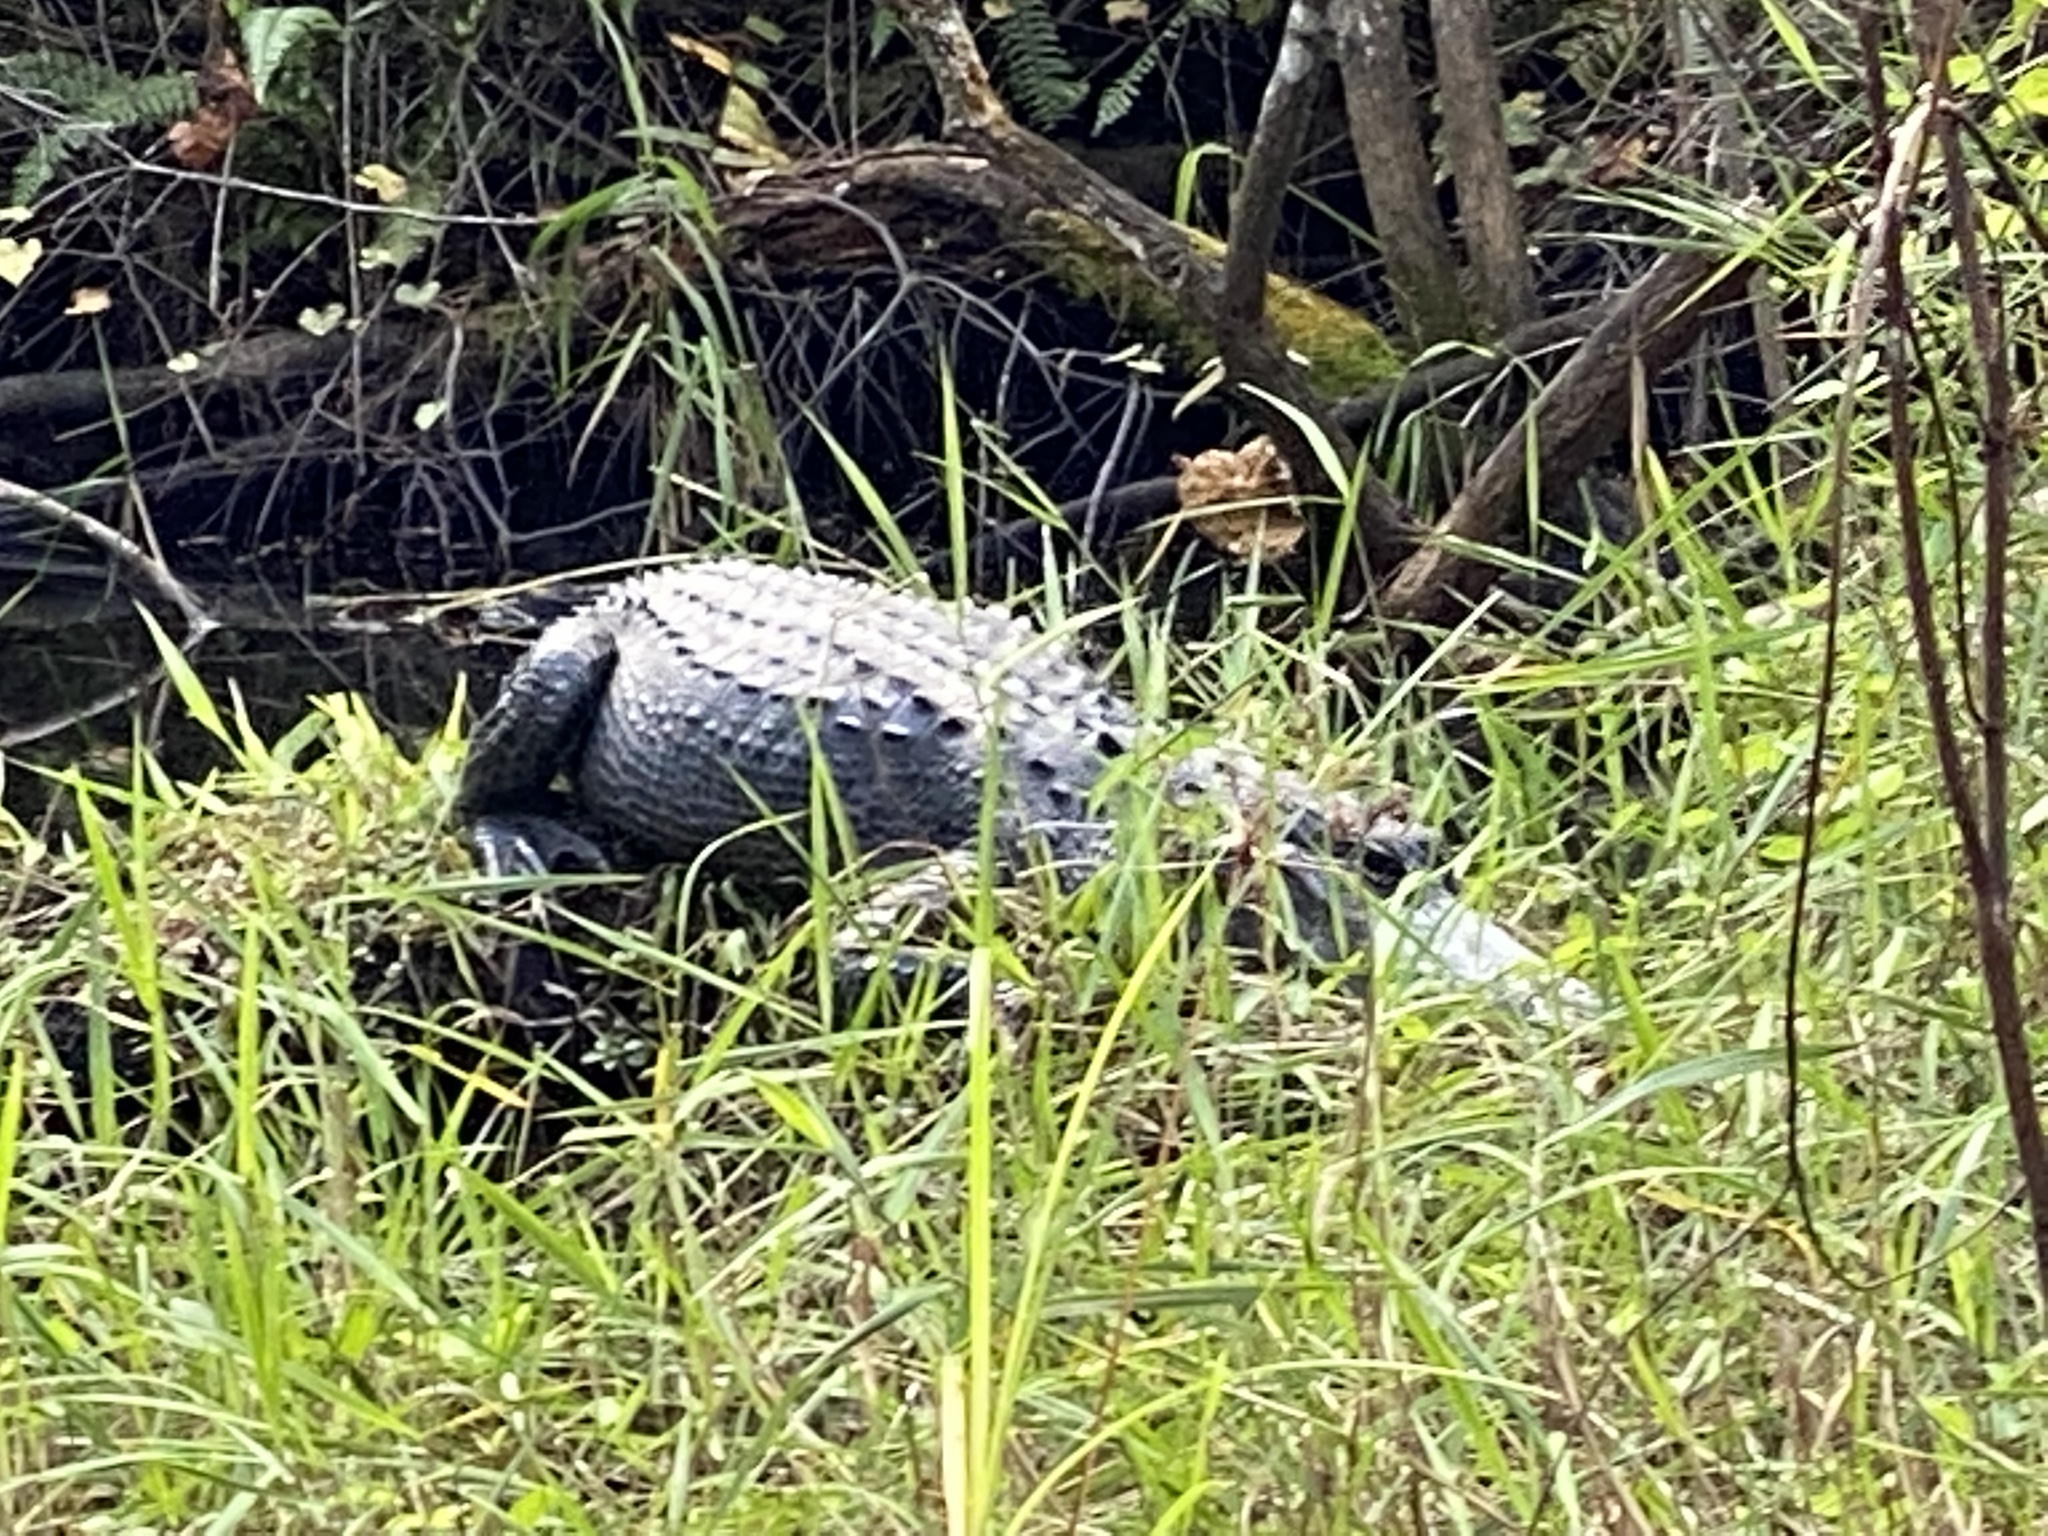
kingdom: Animalia
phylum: Chordata
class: Crocodylia
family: Alligatoridae
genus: Alligator
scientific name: Alligator mississippiensis
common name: American alligator
